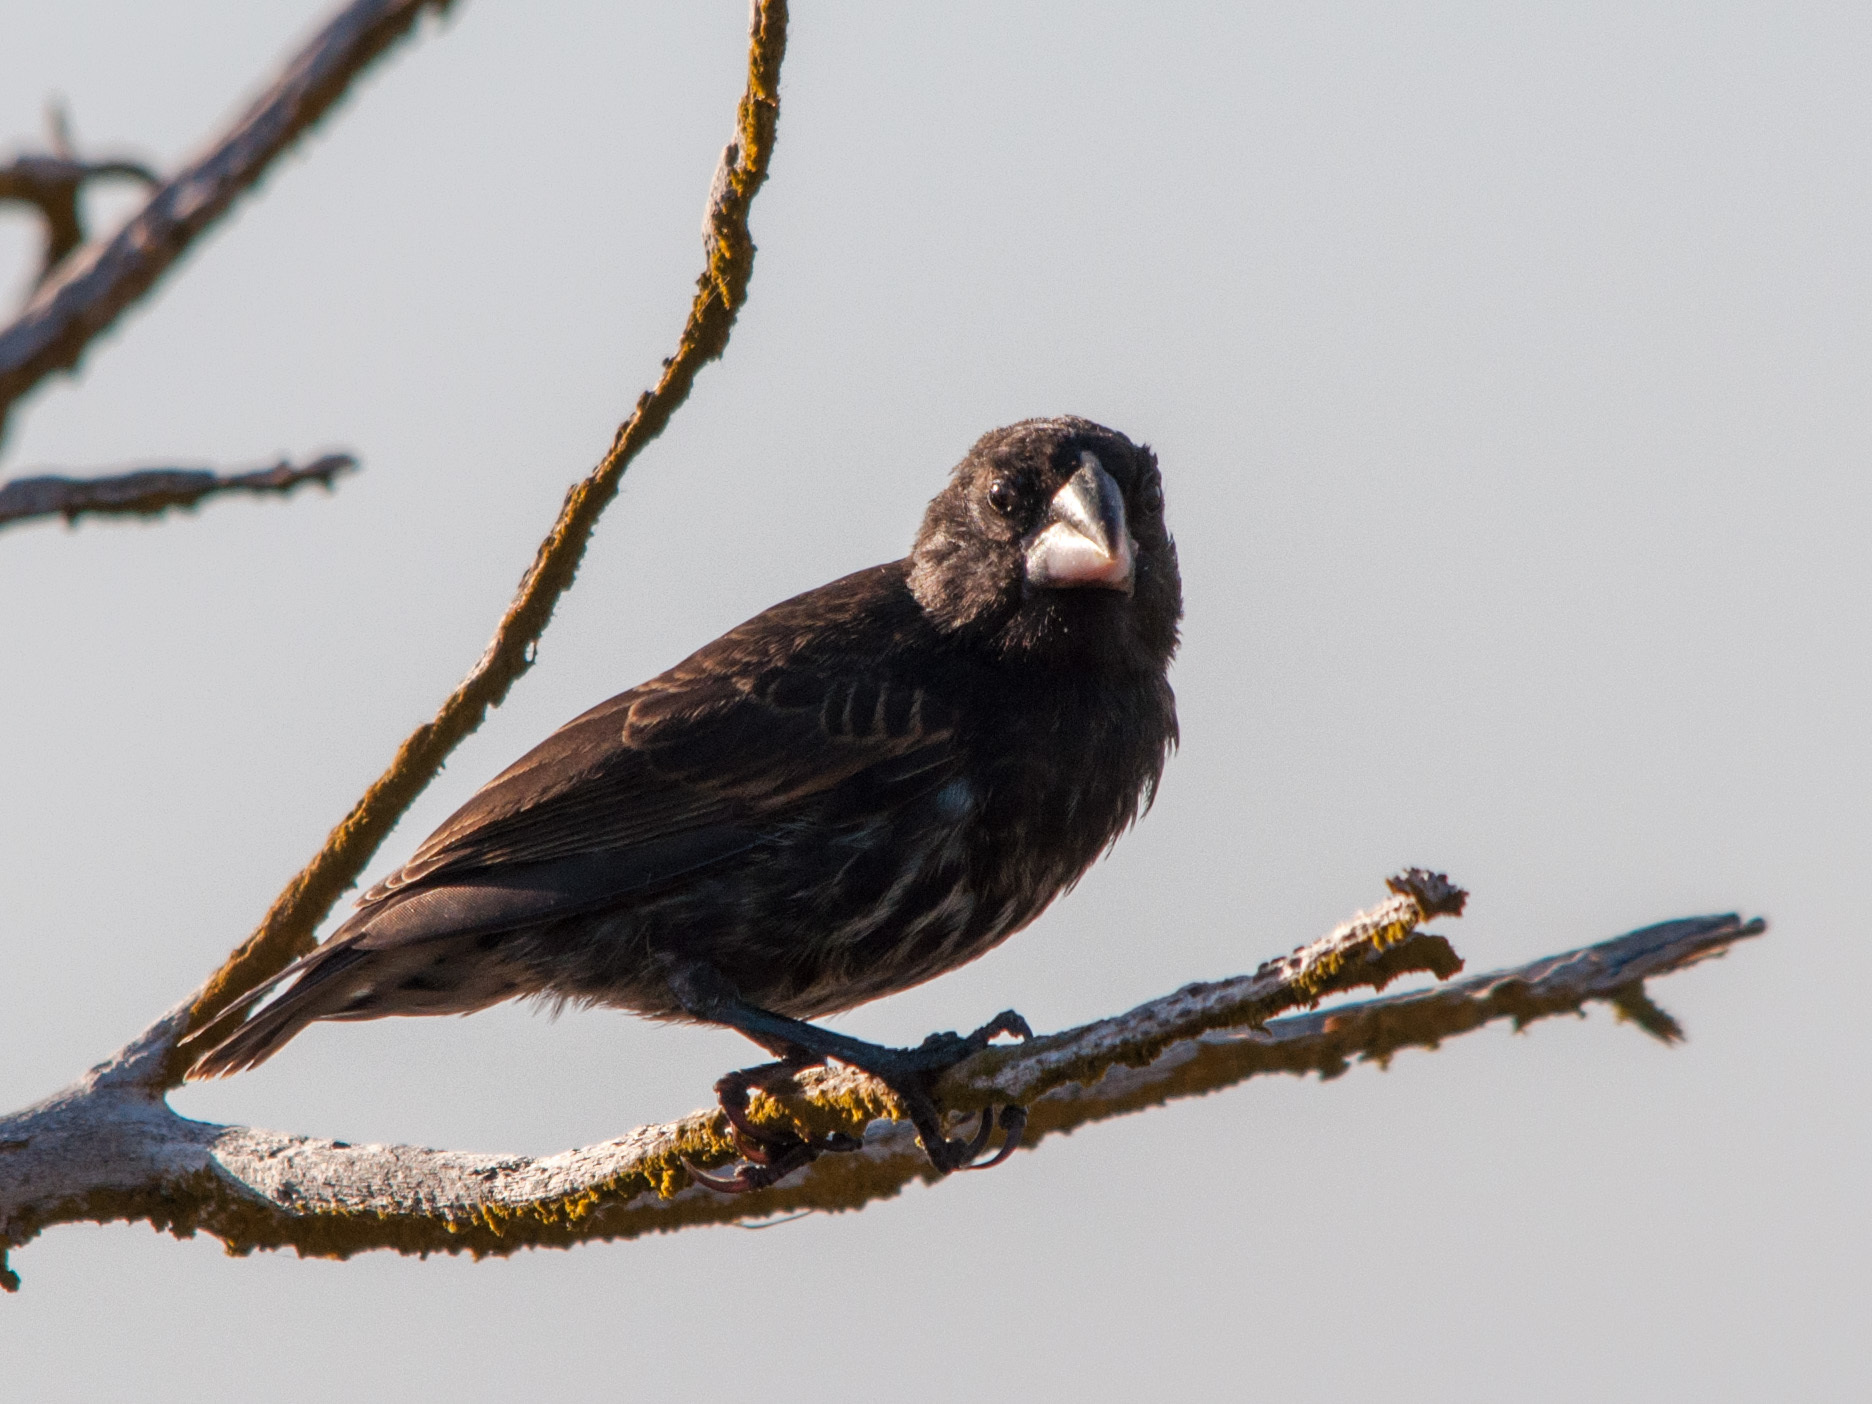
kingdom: Animalia
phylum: Chordata
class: Aves
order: Passeriformes
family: Thraupidae
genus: Geospiza
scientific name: Geospiza conirostris
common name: Large cactus finch
